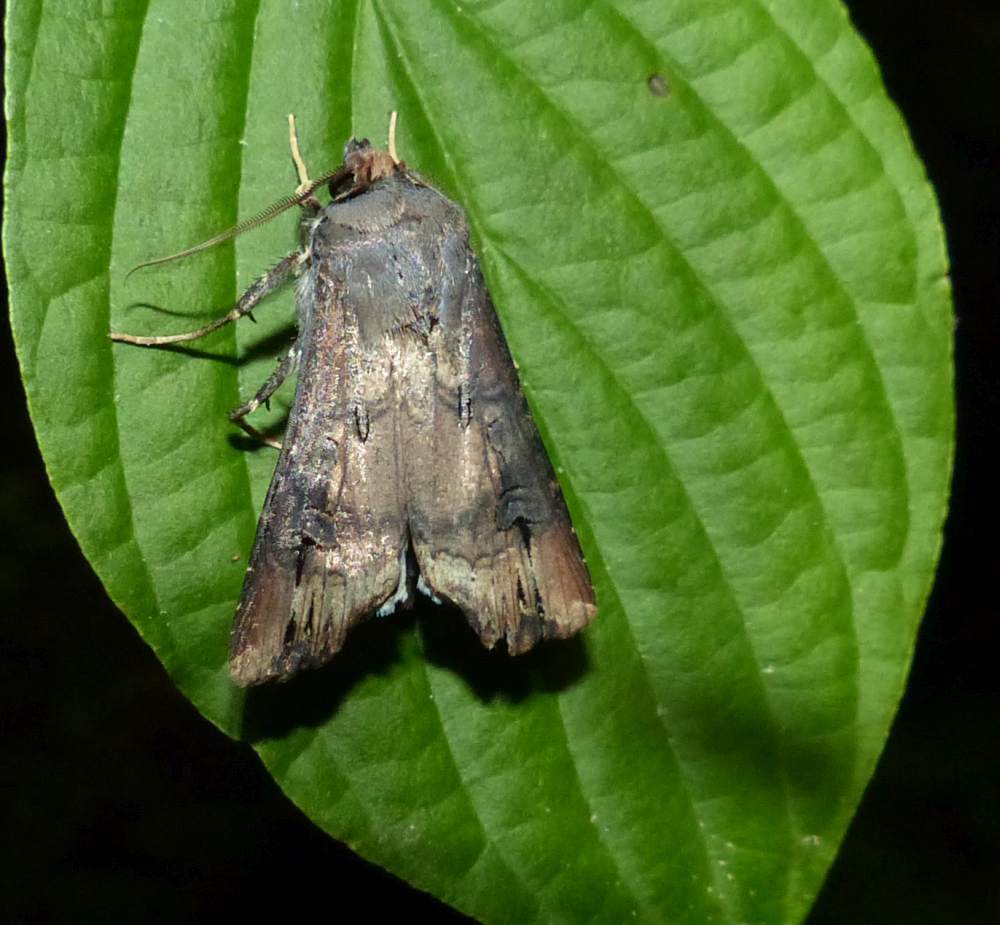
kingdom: Animalia
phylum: Arthropoda
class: Insecta
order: Lepidoptera
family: Noctuidae
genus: Agrotis
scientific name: Agrotis ipsilon
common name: Dark sword-grass
